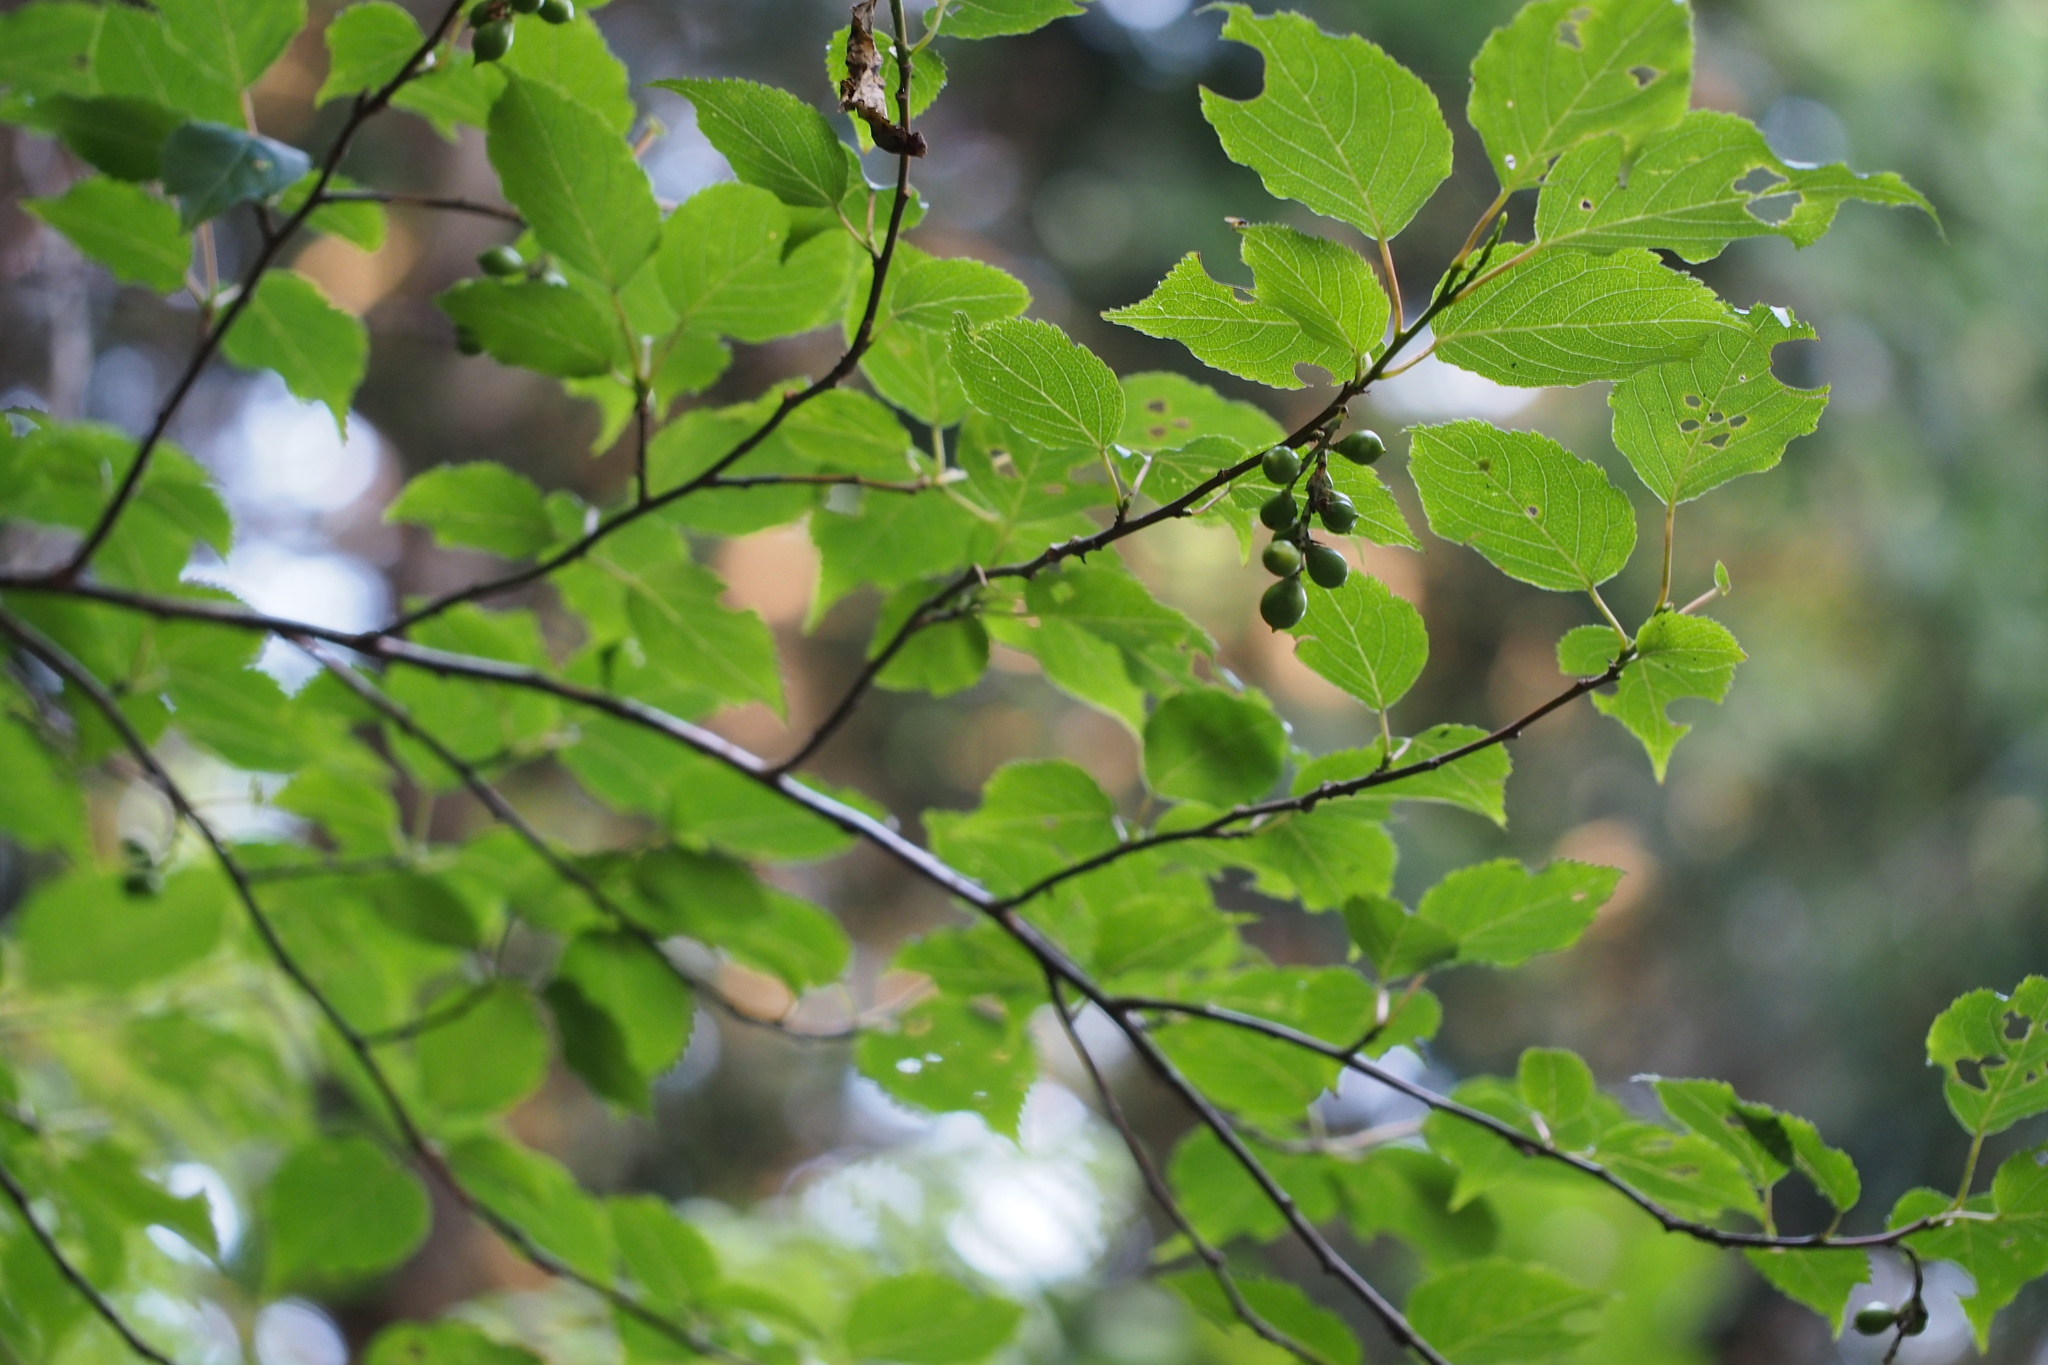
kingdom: Plantae
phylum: Tracheophyta
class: Magnoliopsida
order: Crossosomatales
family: Stachyuraceae
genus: Stachyurus
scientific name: Stachyurus praecox
